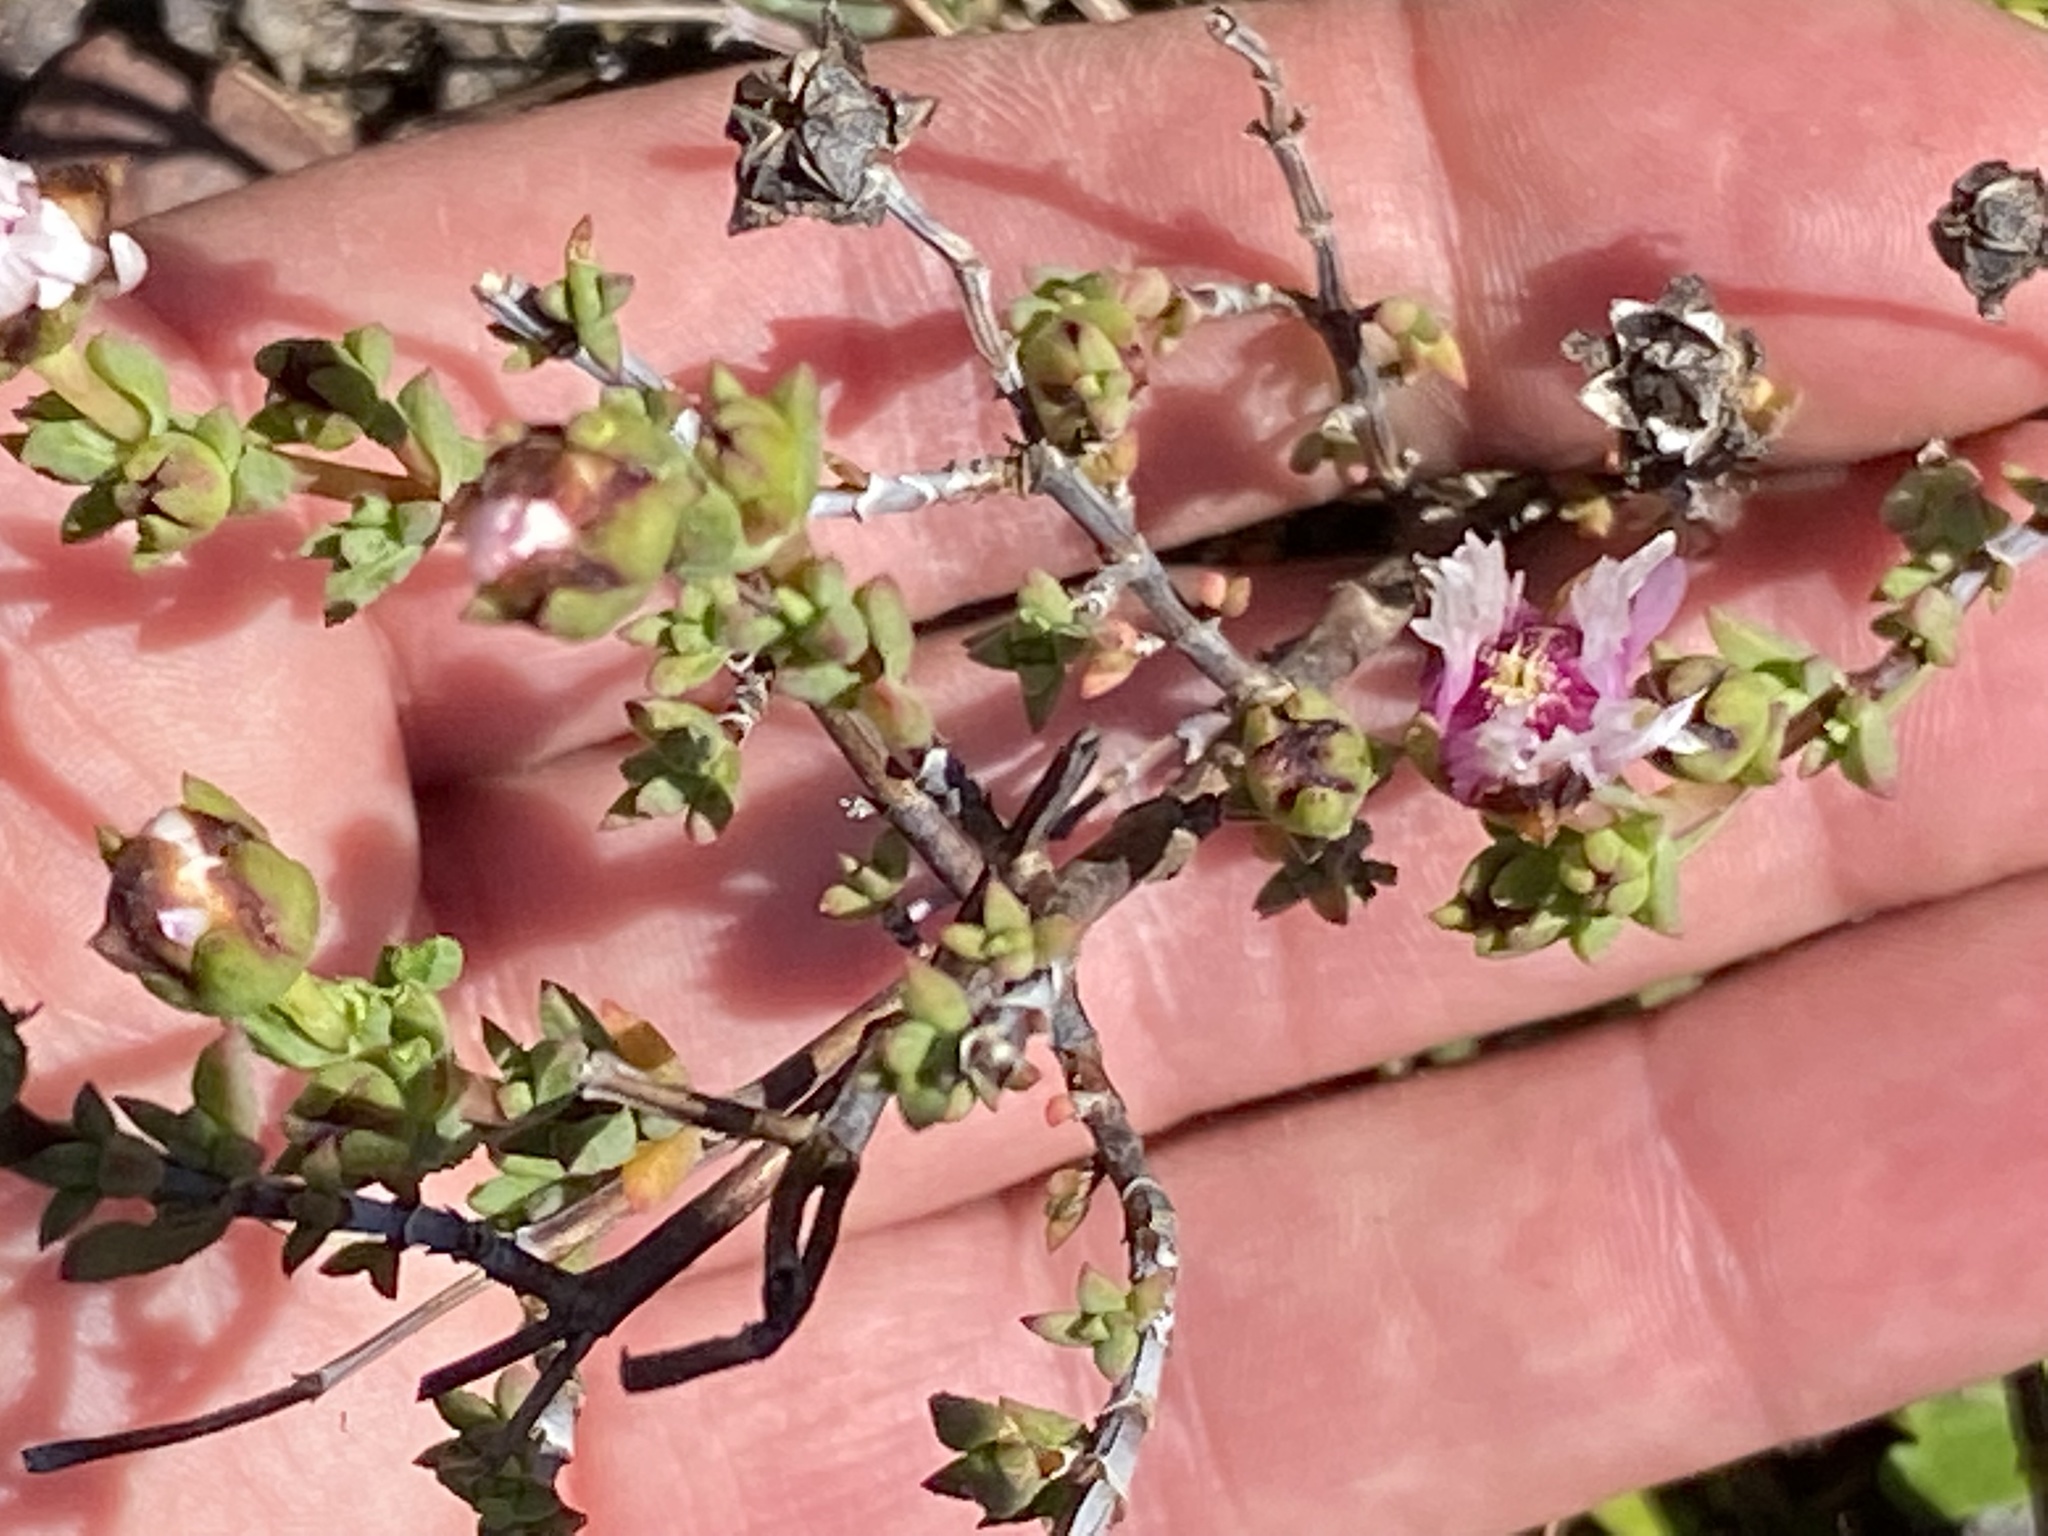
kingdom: Plantae
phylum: Tracheophyta
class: Magnoliopsida
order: Caryophyllales
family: Aizoaceae
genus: Lampranthus
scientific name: Lampranthus elegans
